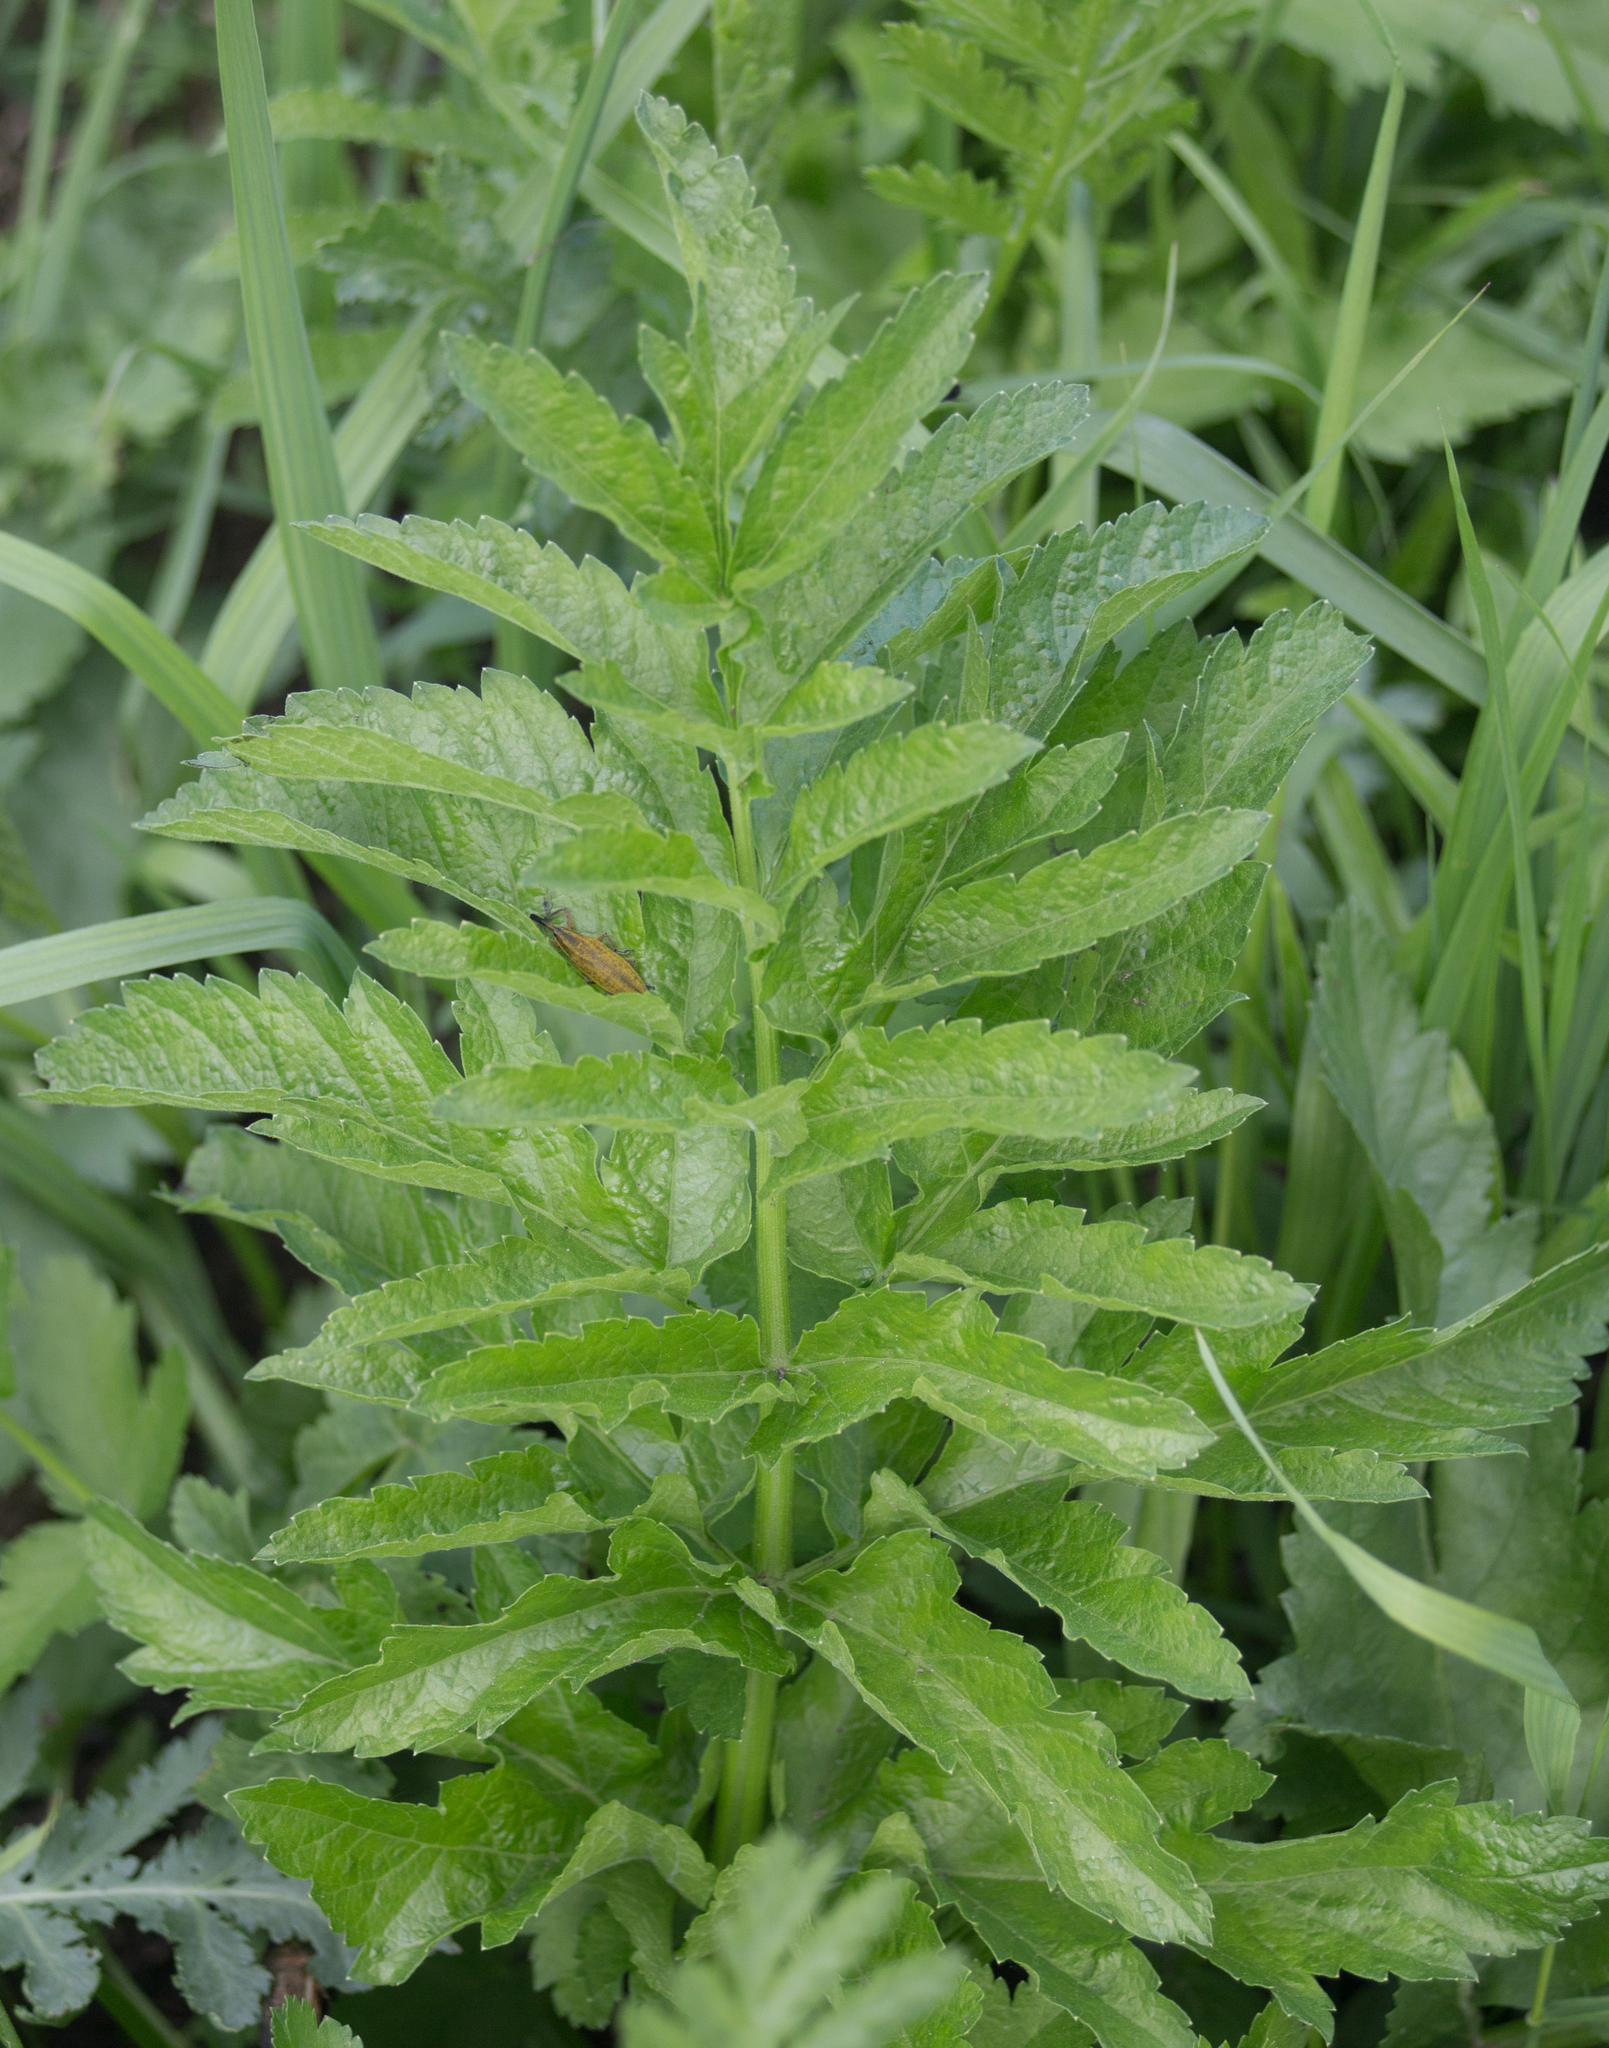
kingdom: Plantae
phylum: Tracheophyta
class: Magnoliopsida
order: Apiales
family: Apiaceae
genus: Pastinaca
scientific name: Pastinaca sativa
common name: Wild parsnip
